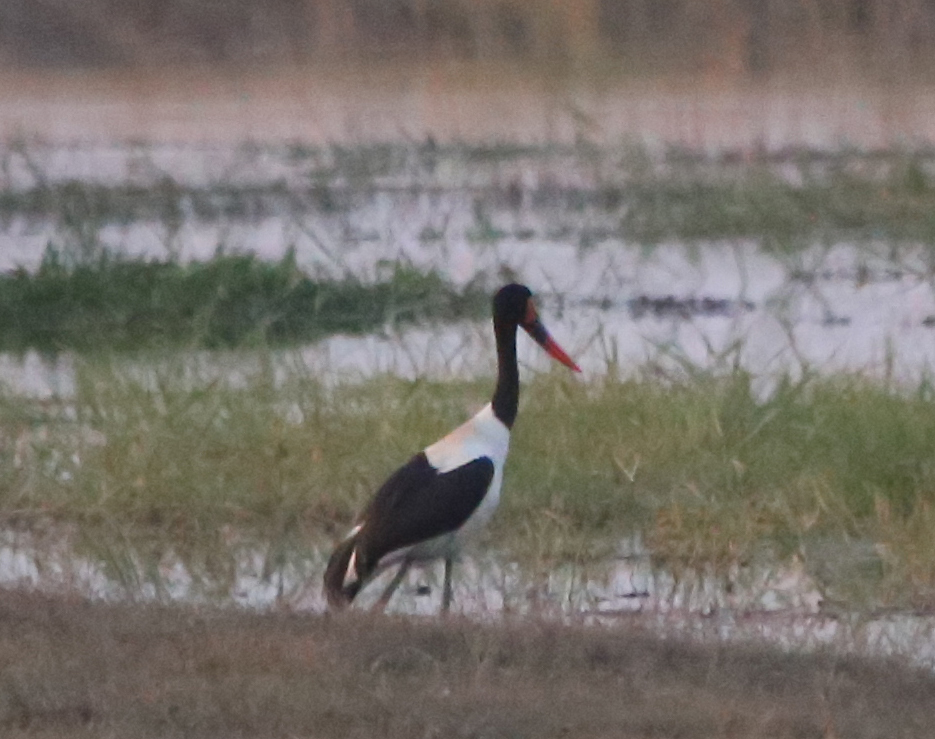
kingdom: Animalia
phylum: Chordata
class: Aves
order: Ciconiiformes
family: Ciconiidae
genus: Ephippiorhynchus
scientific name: Ephippiorhynchus senegalensis
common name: Saddle-billed stork
